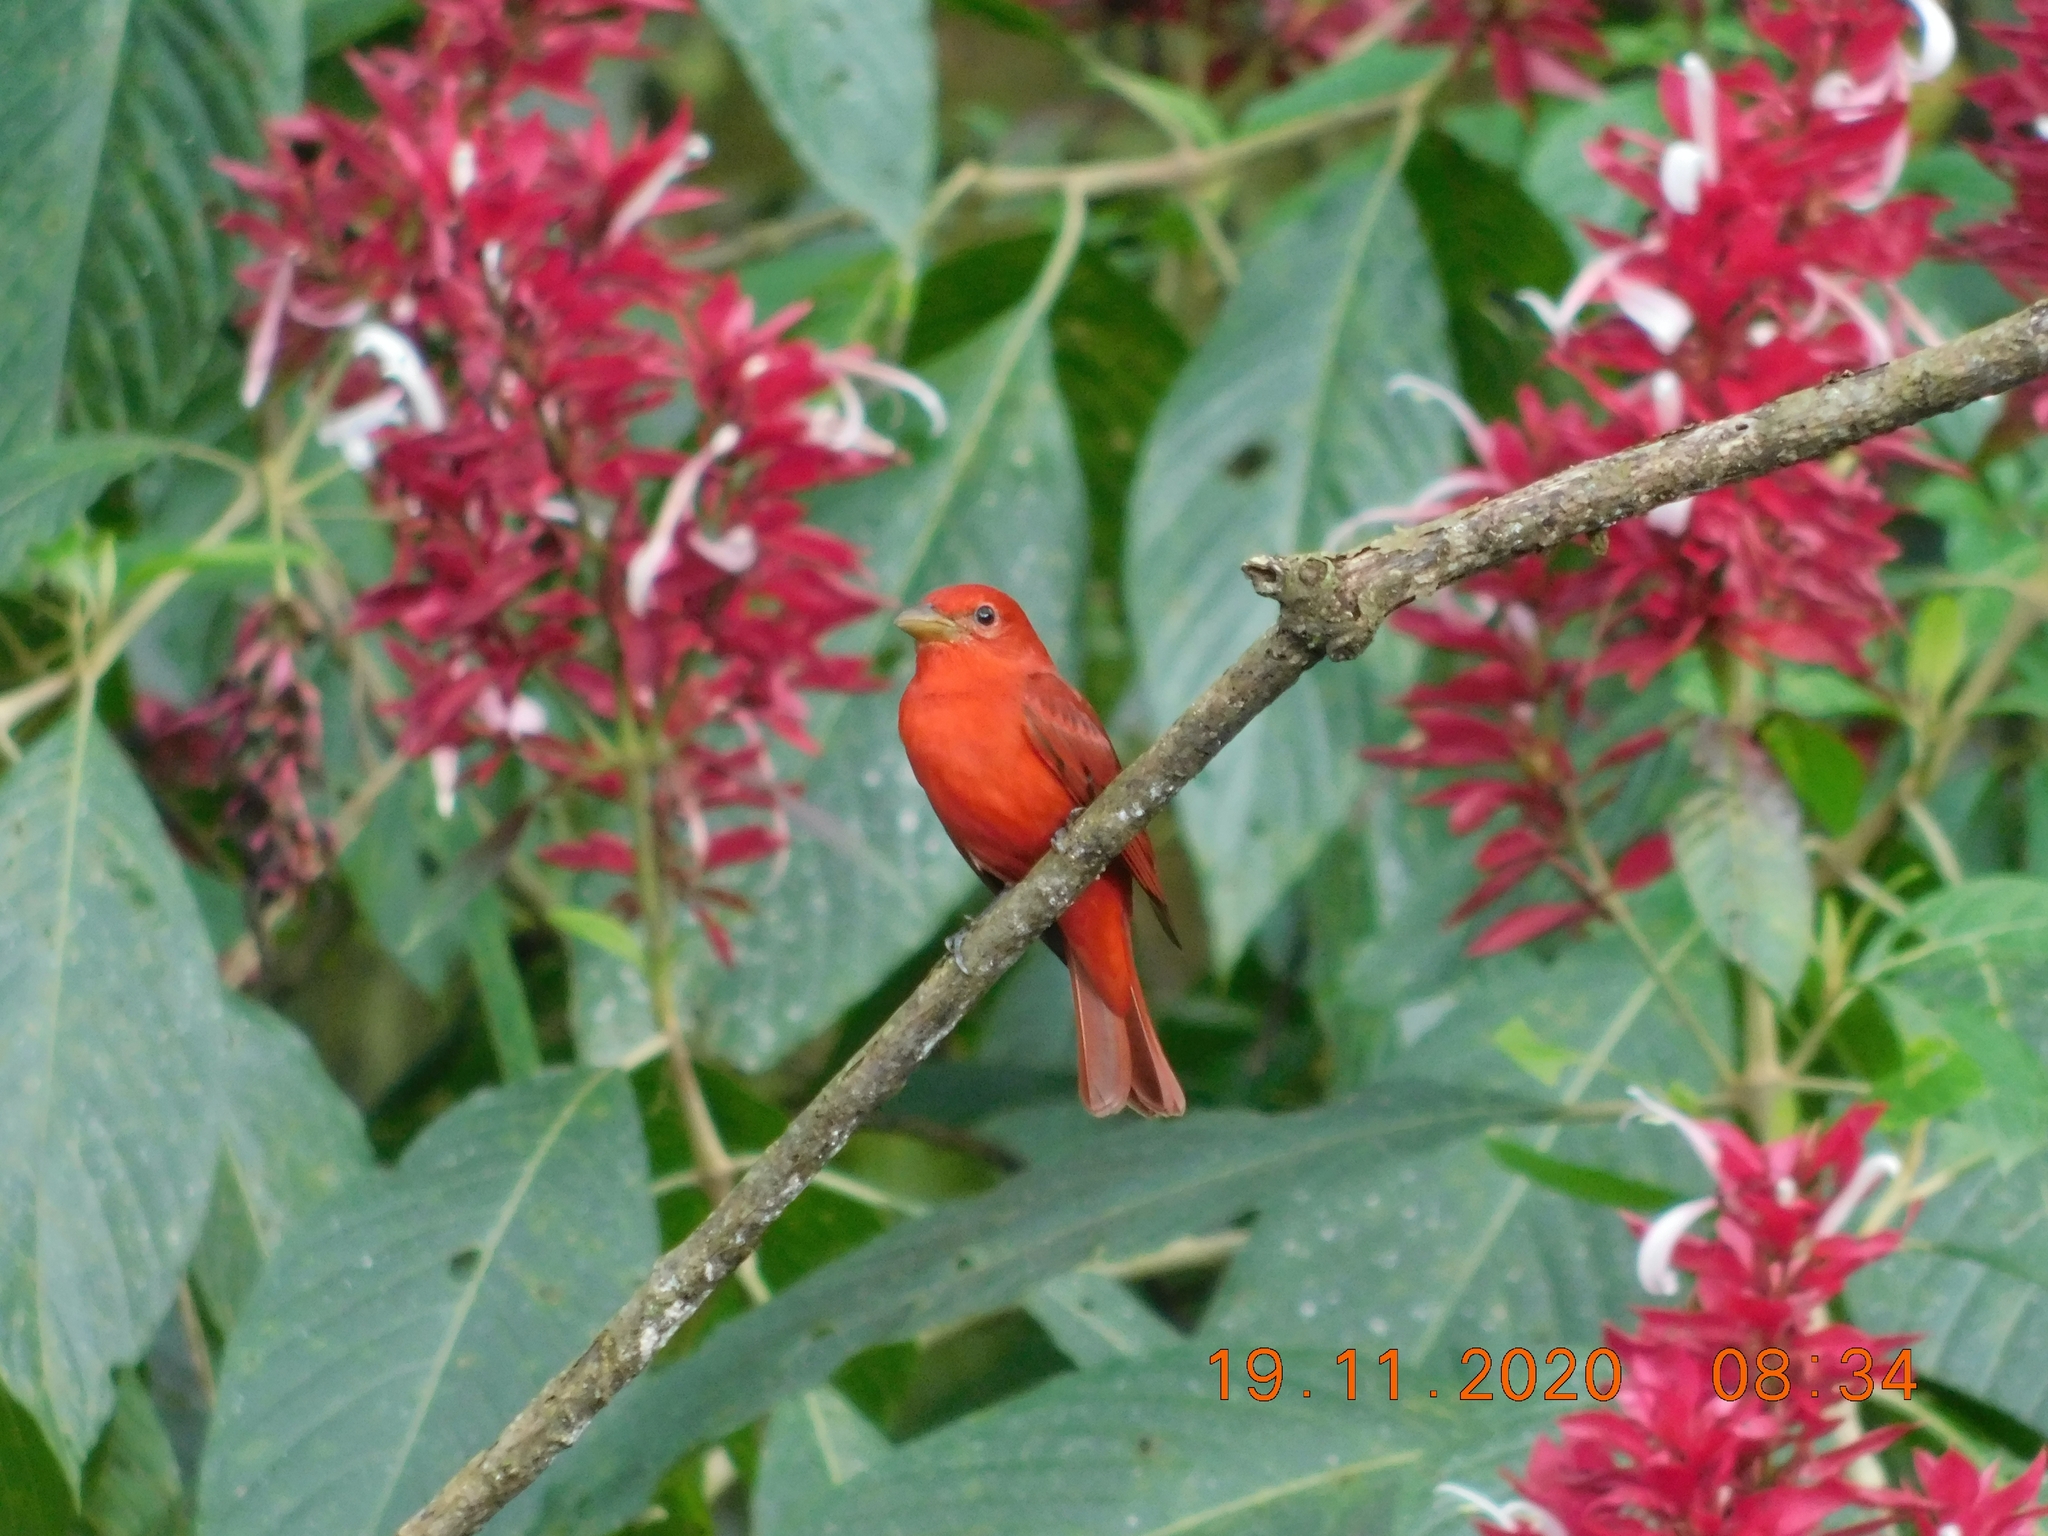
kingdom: Animalia
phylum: Chordata
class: Aves
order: Passeriformes
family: Cardinalidae
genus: Piranga
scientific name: Piranga rubra
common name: Summer tanager
